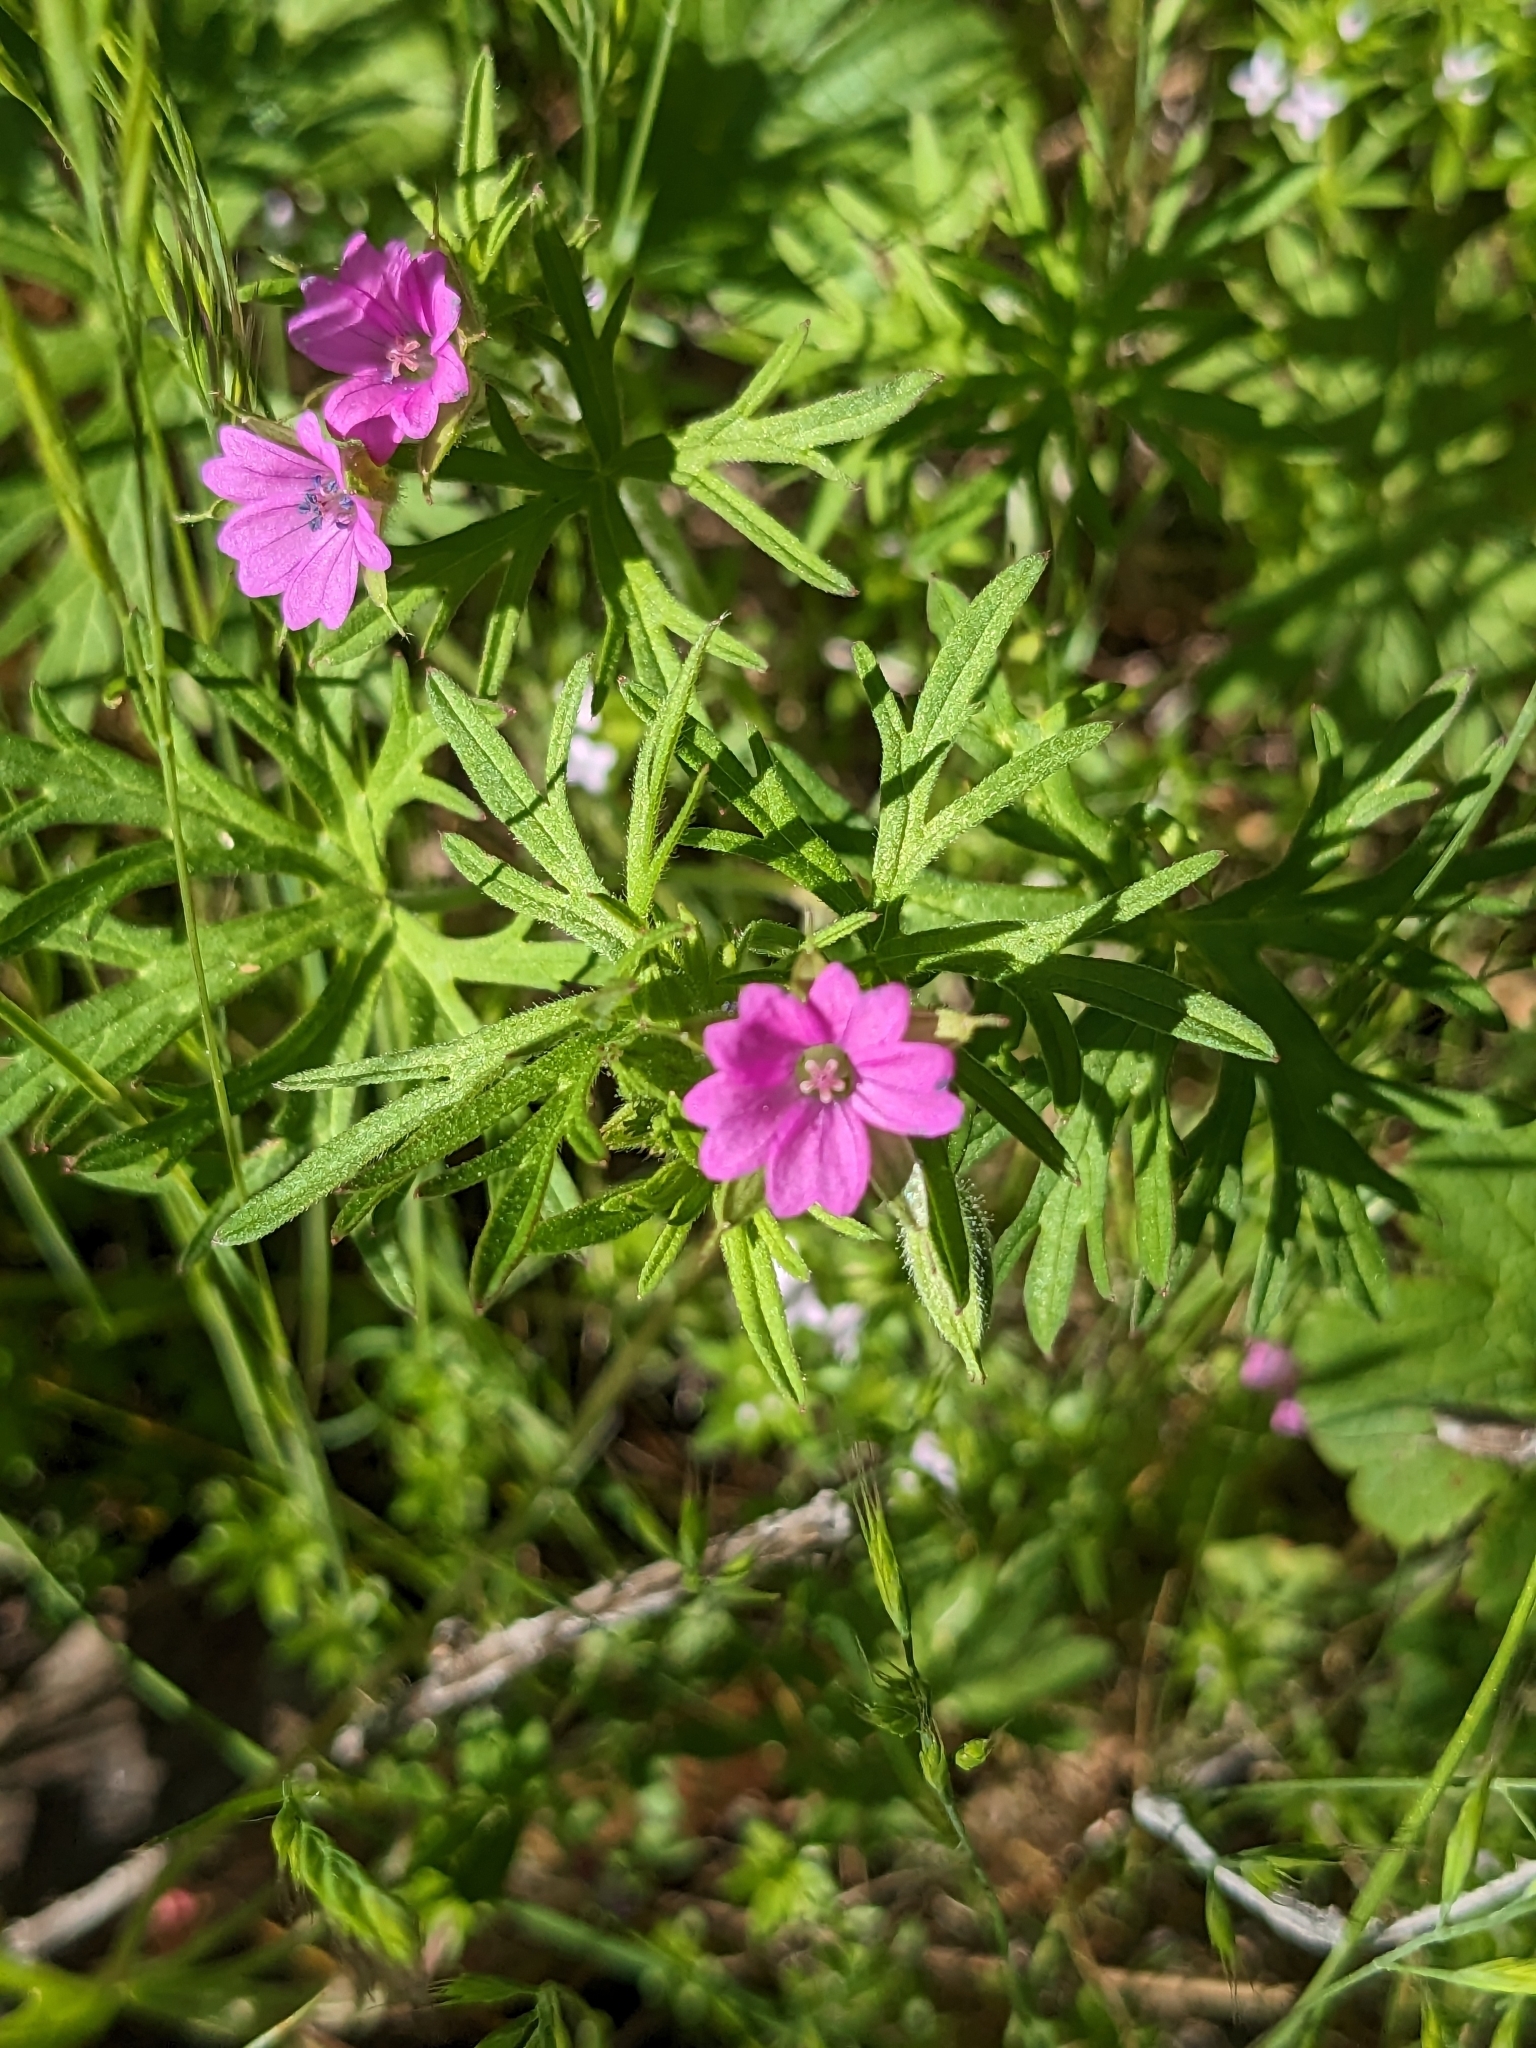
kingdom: Plantae
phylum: Tracheophyta
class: Magnoliopsida
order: Geraniales
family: Geraniaceae
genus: Geranium
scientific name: Geranium dissectum
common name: Cut-leaved crane's-bill
